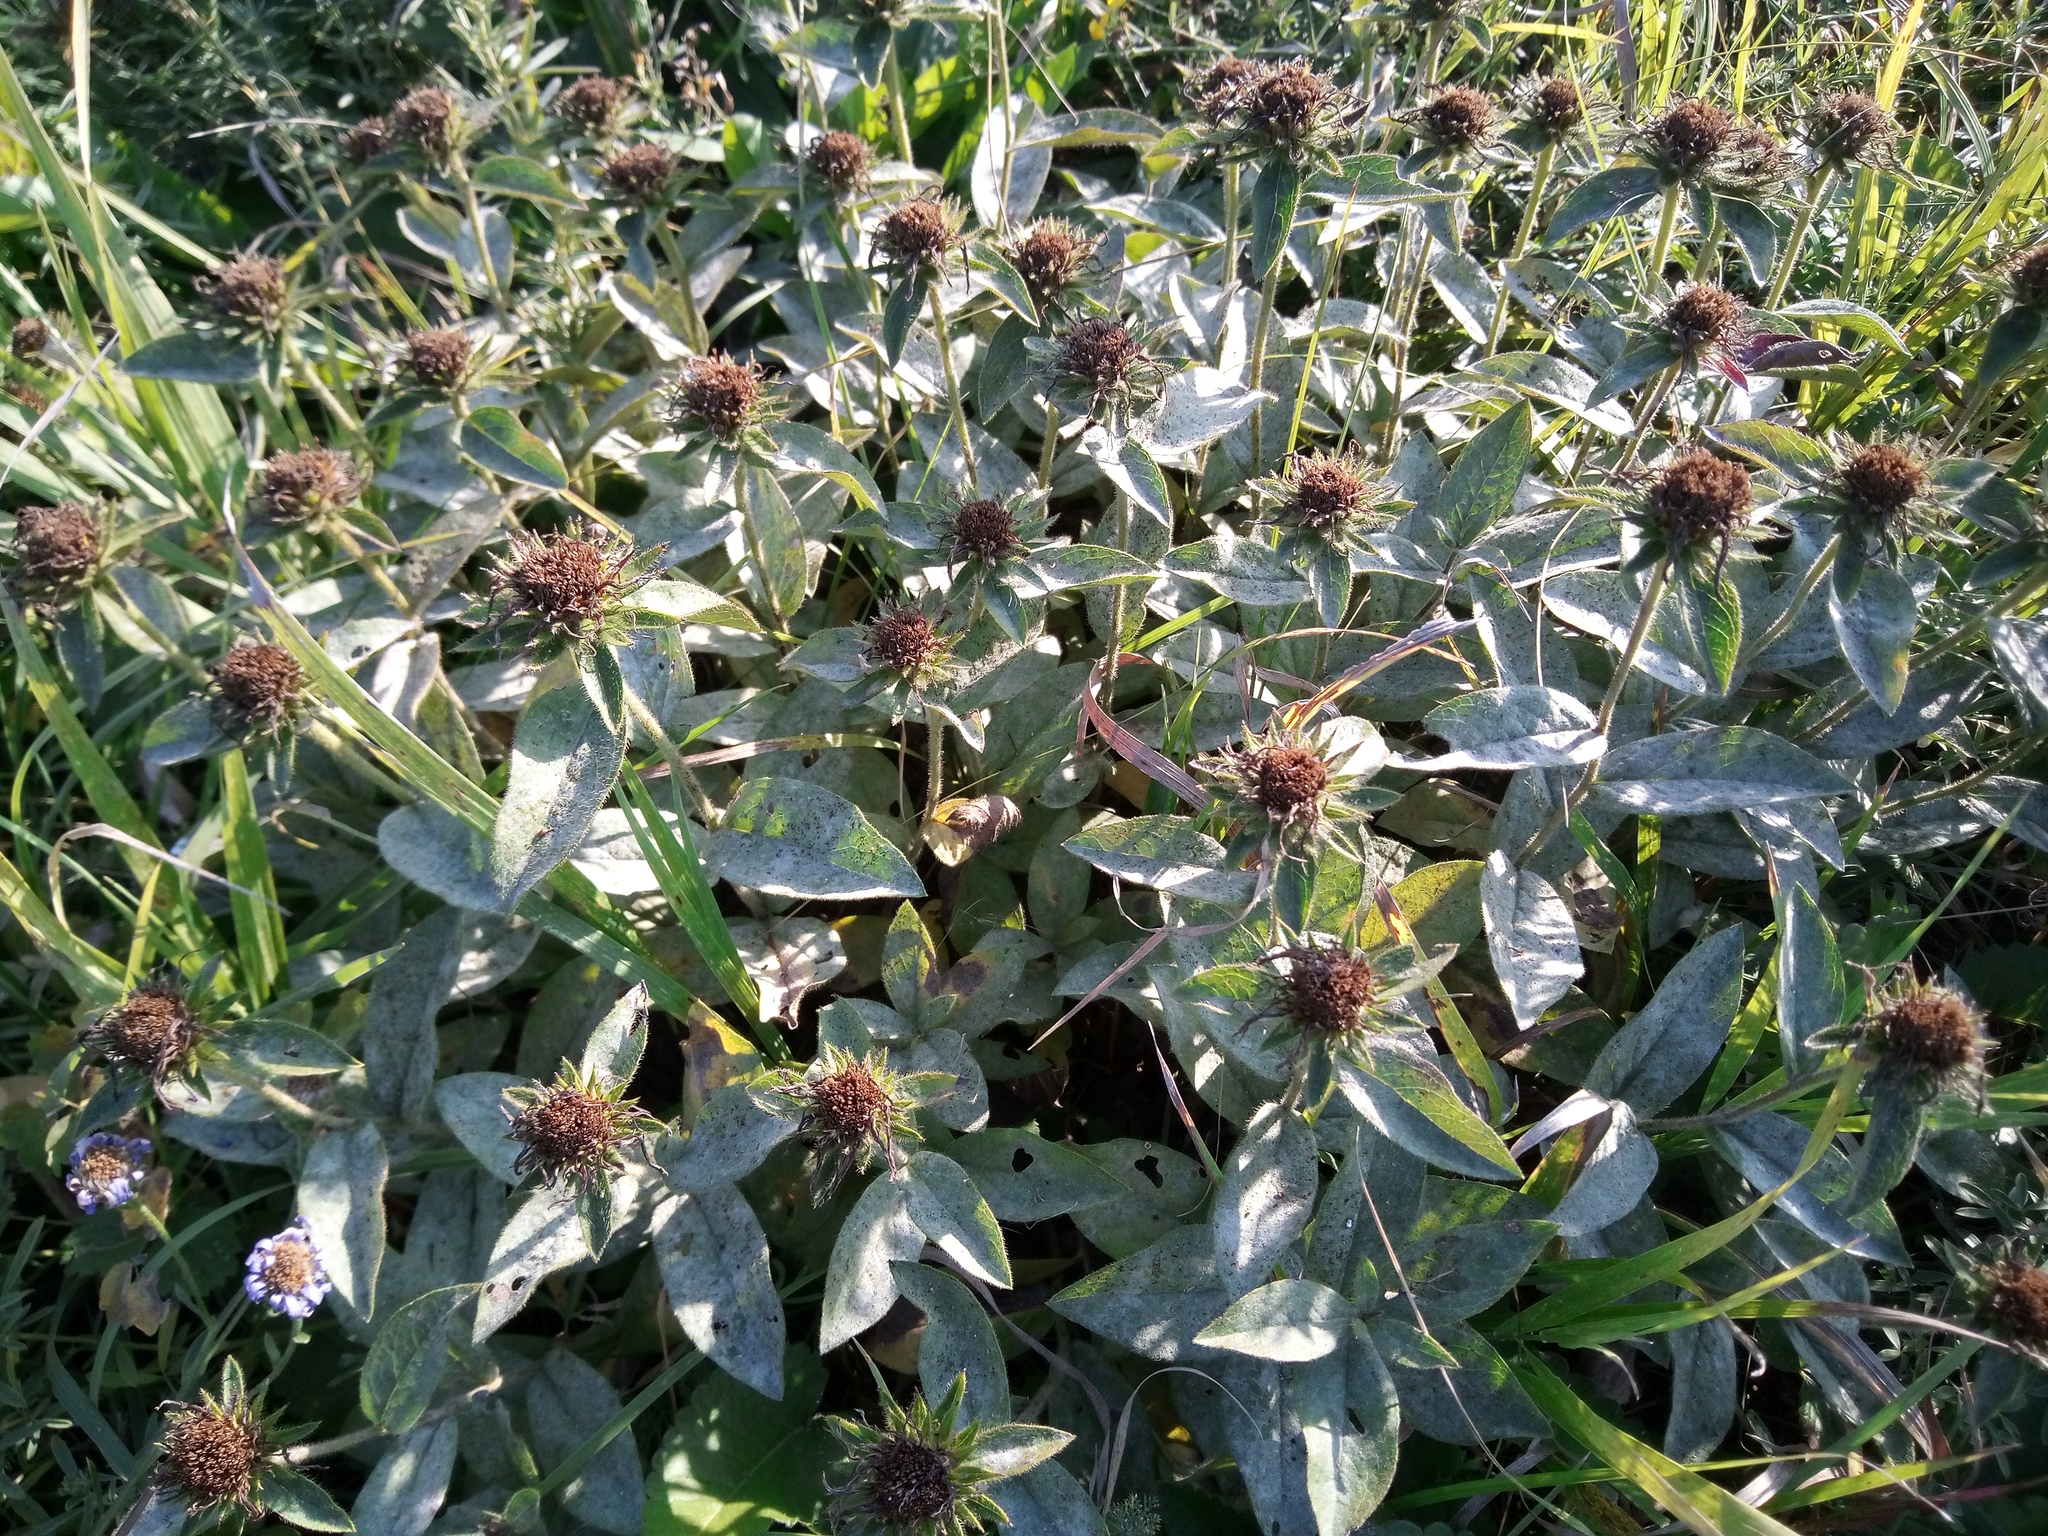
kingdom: Plantae
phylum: Tracheophyta
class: Magnoliopsida
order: Asterales
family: Asteraceae
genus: Pentanema
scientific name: Pentanema hirtum
